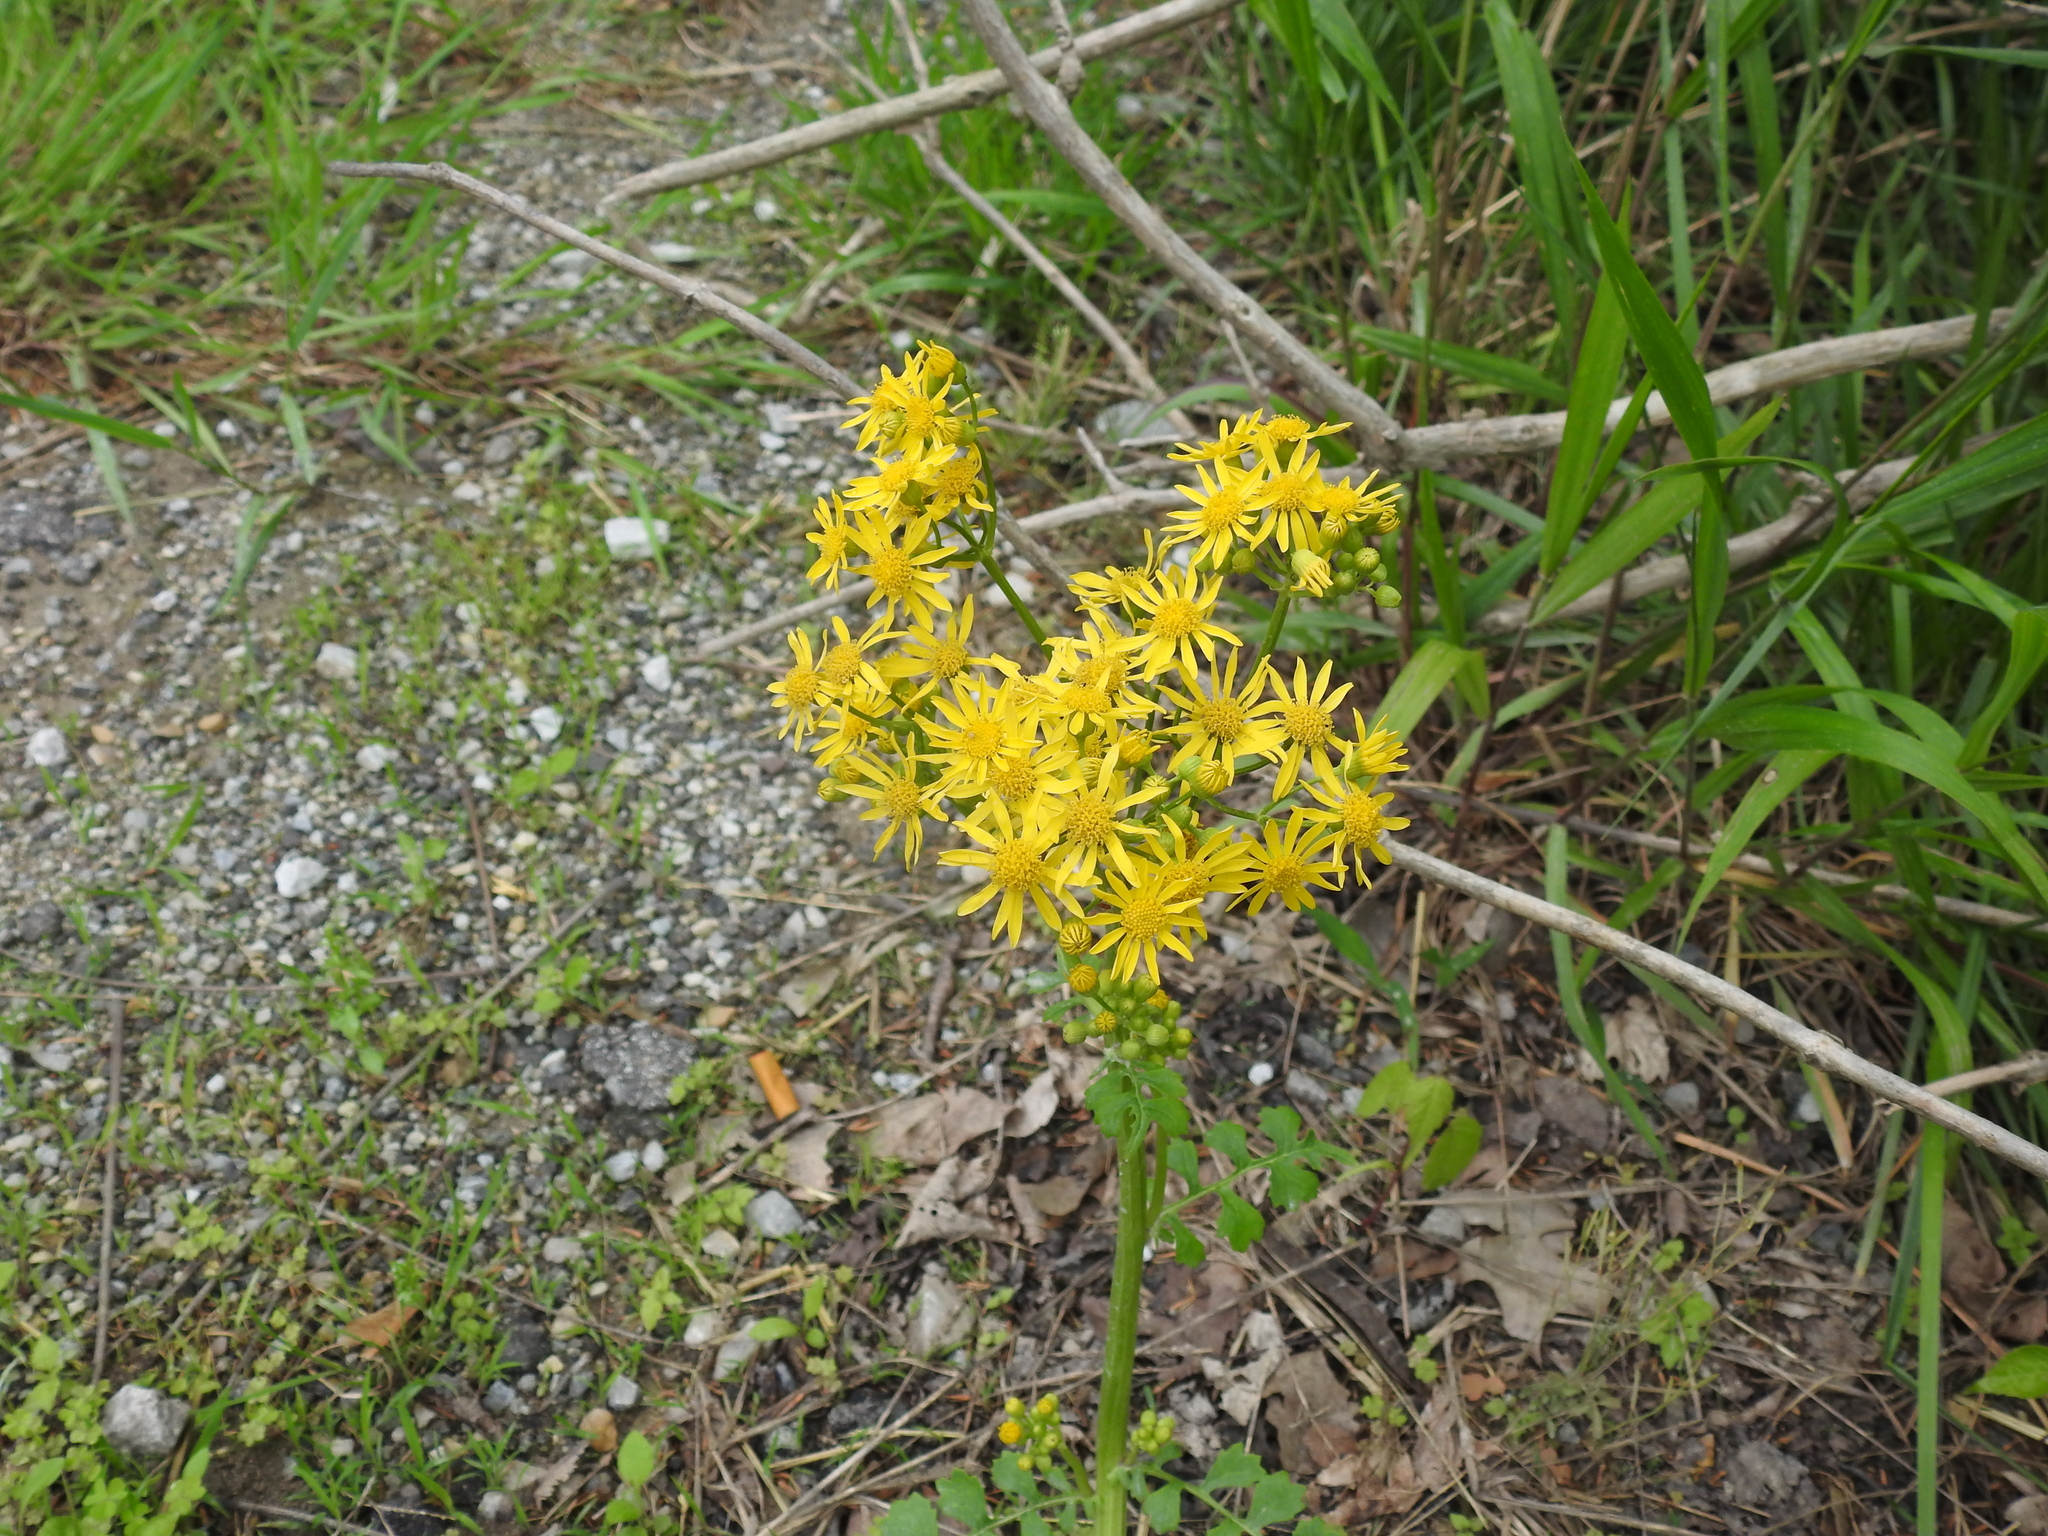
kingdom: Plantae
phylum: Tracheophyta
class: Magnoliopsida
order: Asterales
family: Asteraceae
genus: Packera
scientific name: Packera glabella
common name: Butterweed
